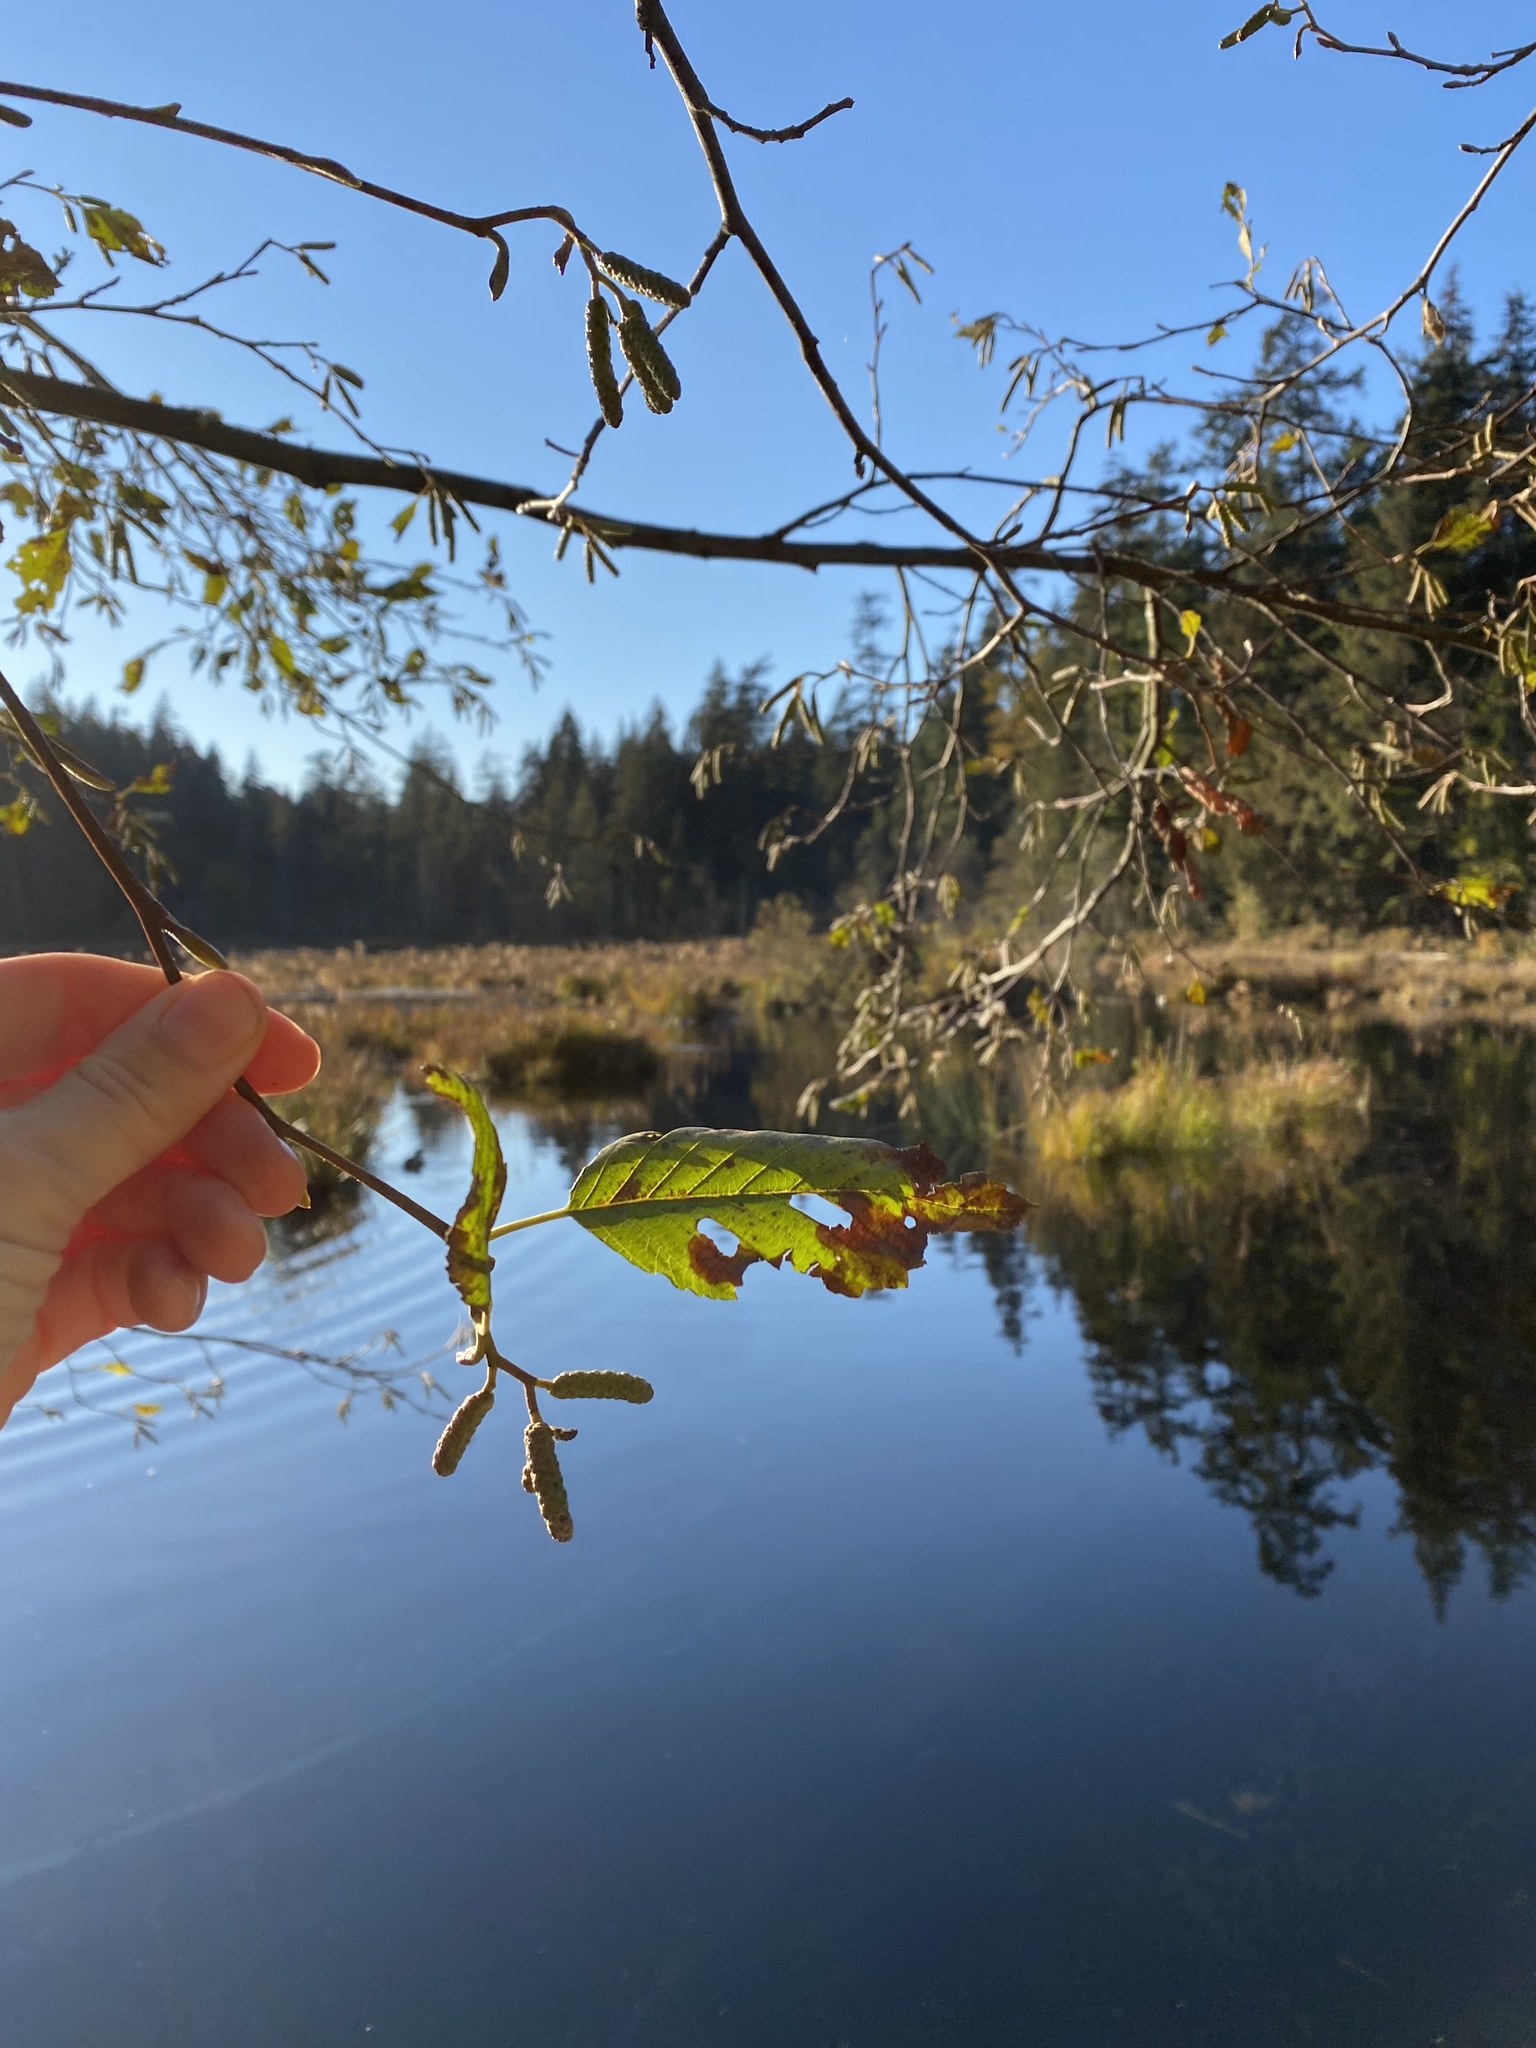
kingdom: Plantae
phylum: Tracheophyta
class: Magnoliopsida
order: Fagales
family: Betulaceae
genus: Alnus
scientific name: Alnus rubra
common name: Red alder
